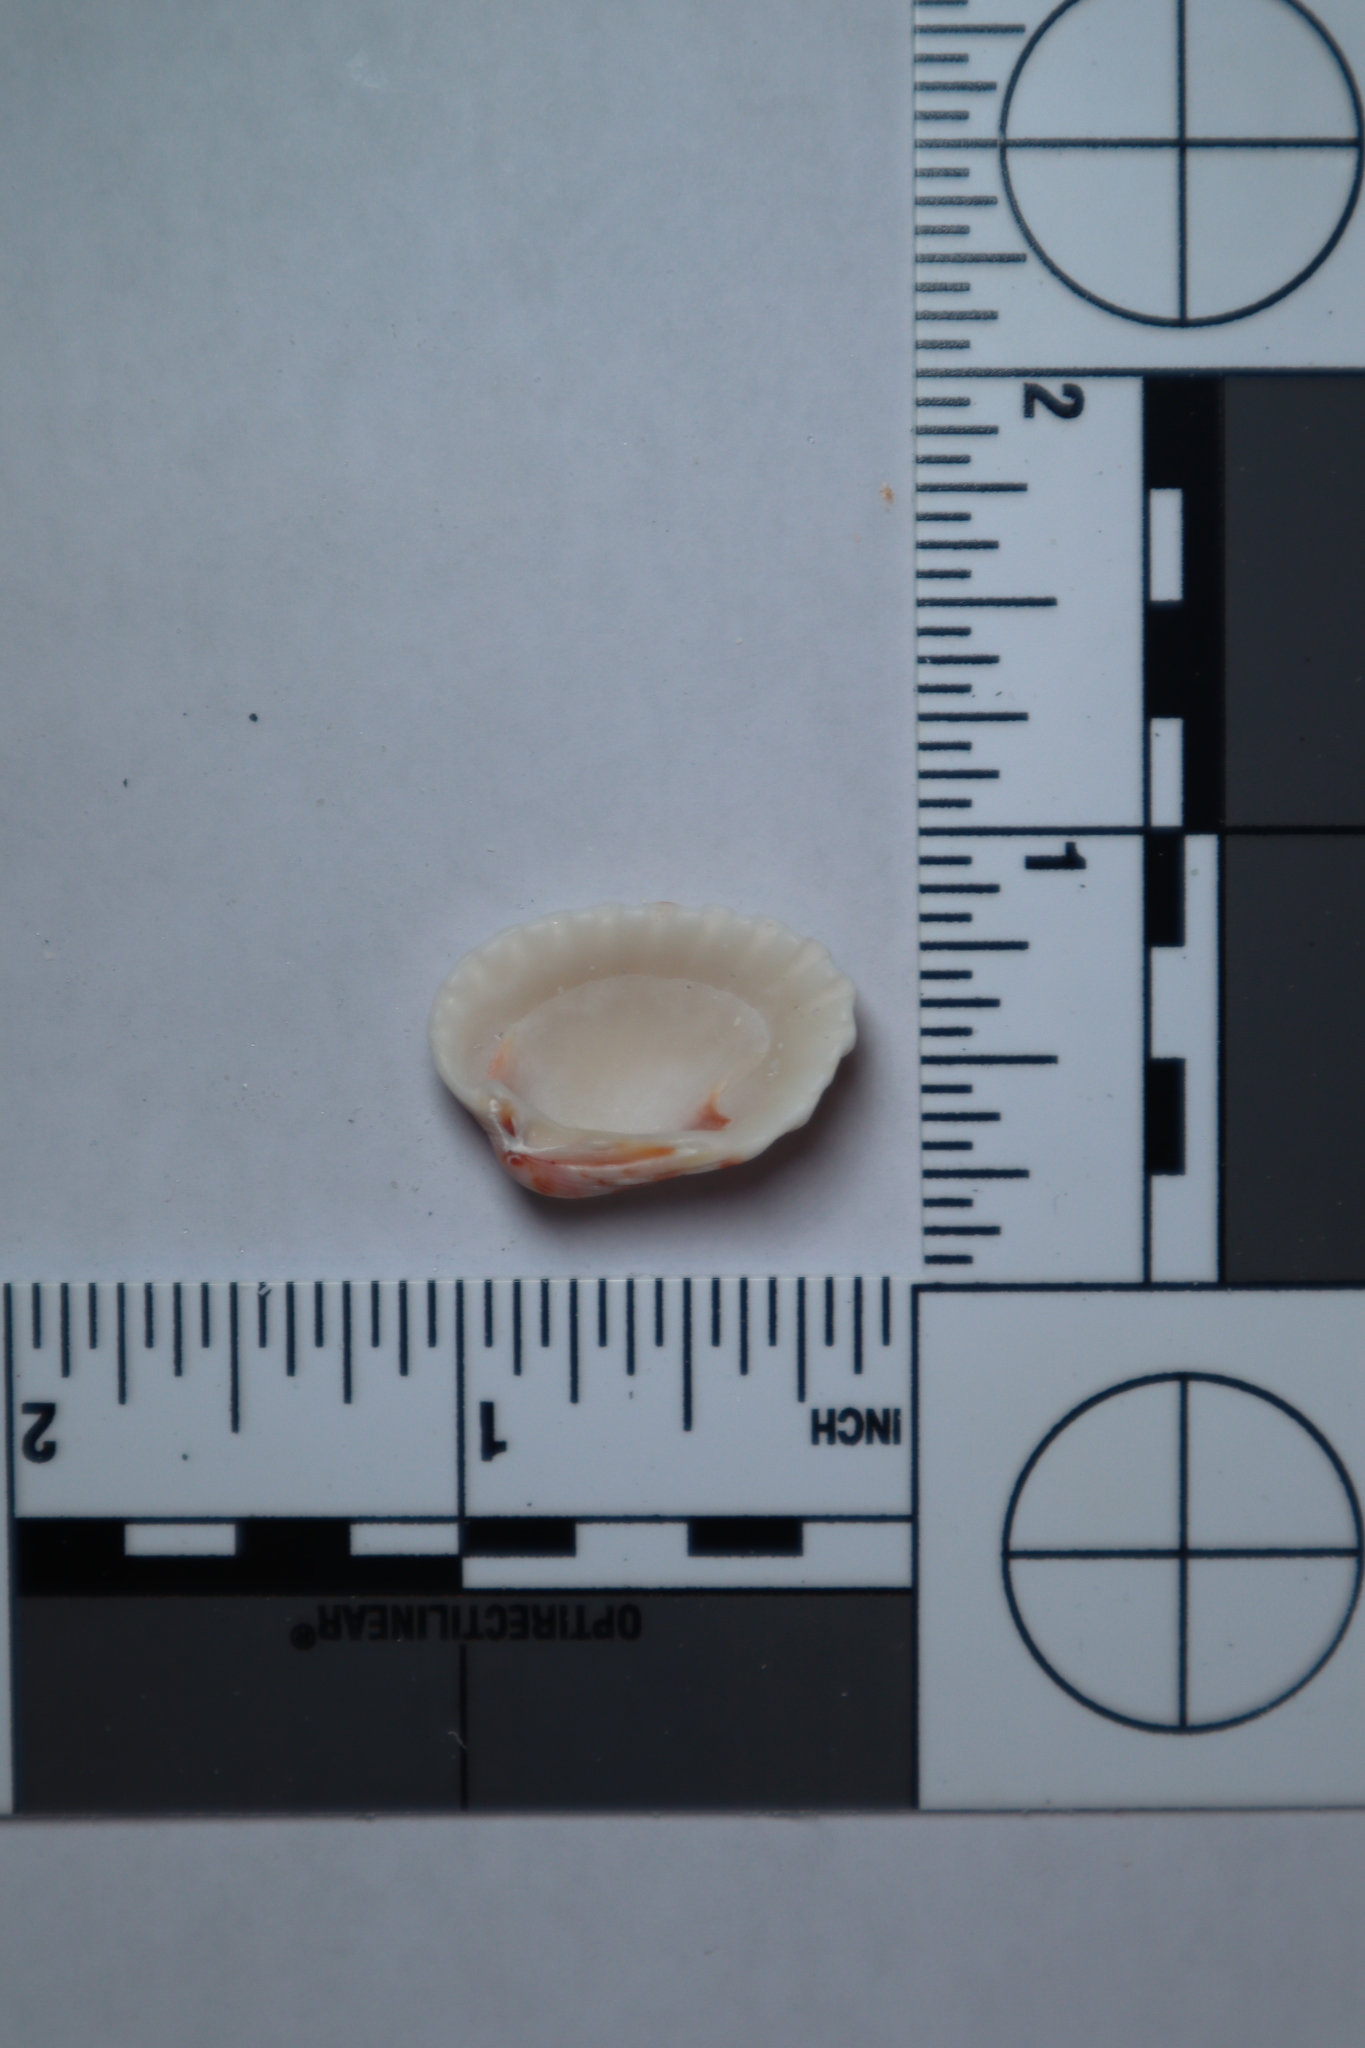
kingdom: Animalia
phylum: Mollusca
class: Bivalvia
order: Carditida
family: Carditidae
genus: Cardites
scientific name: Cardites floridanus
